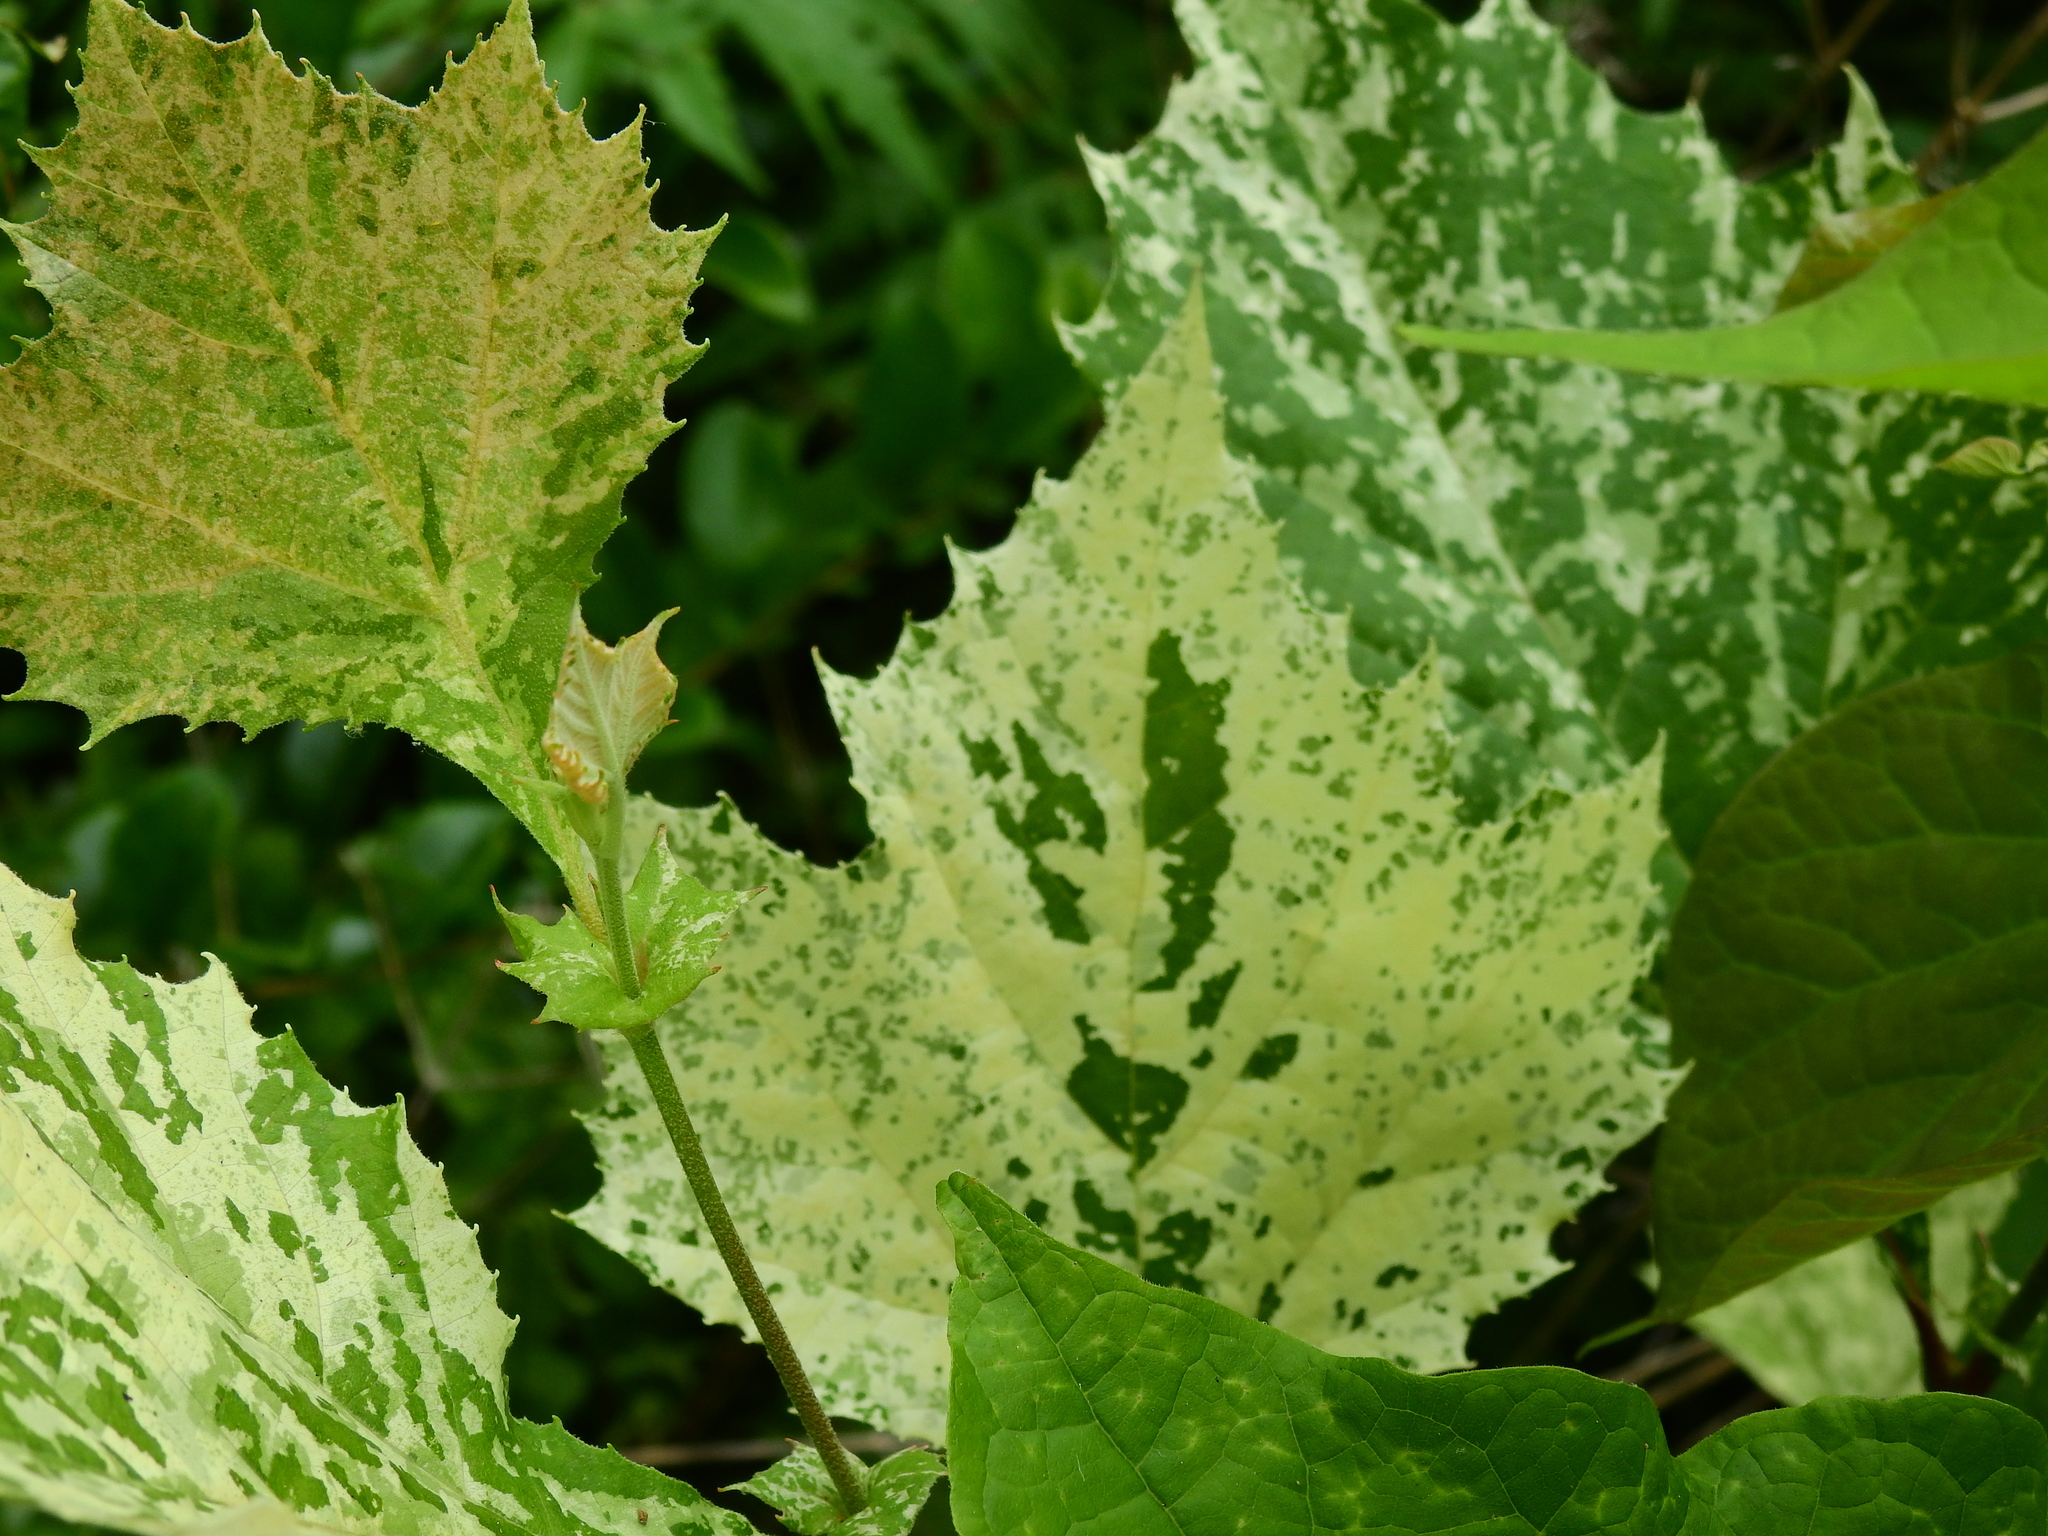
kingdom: Plantae
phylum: Tracheophyta
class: Magnoliopsida
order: Proteales
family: Platanaceae
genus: Platanus
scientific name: Platanus occidentalis
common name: American sycamore
